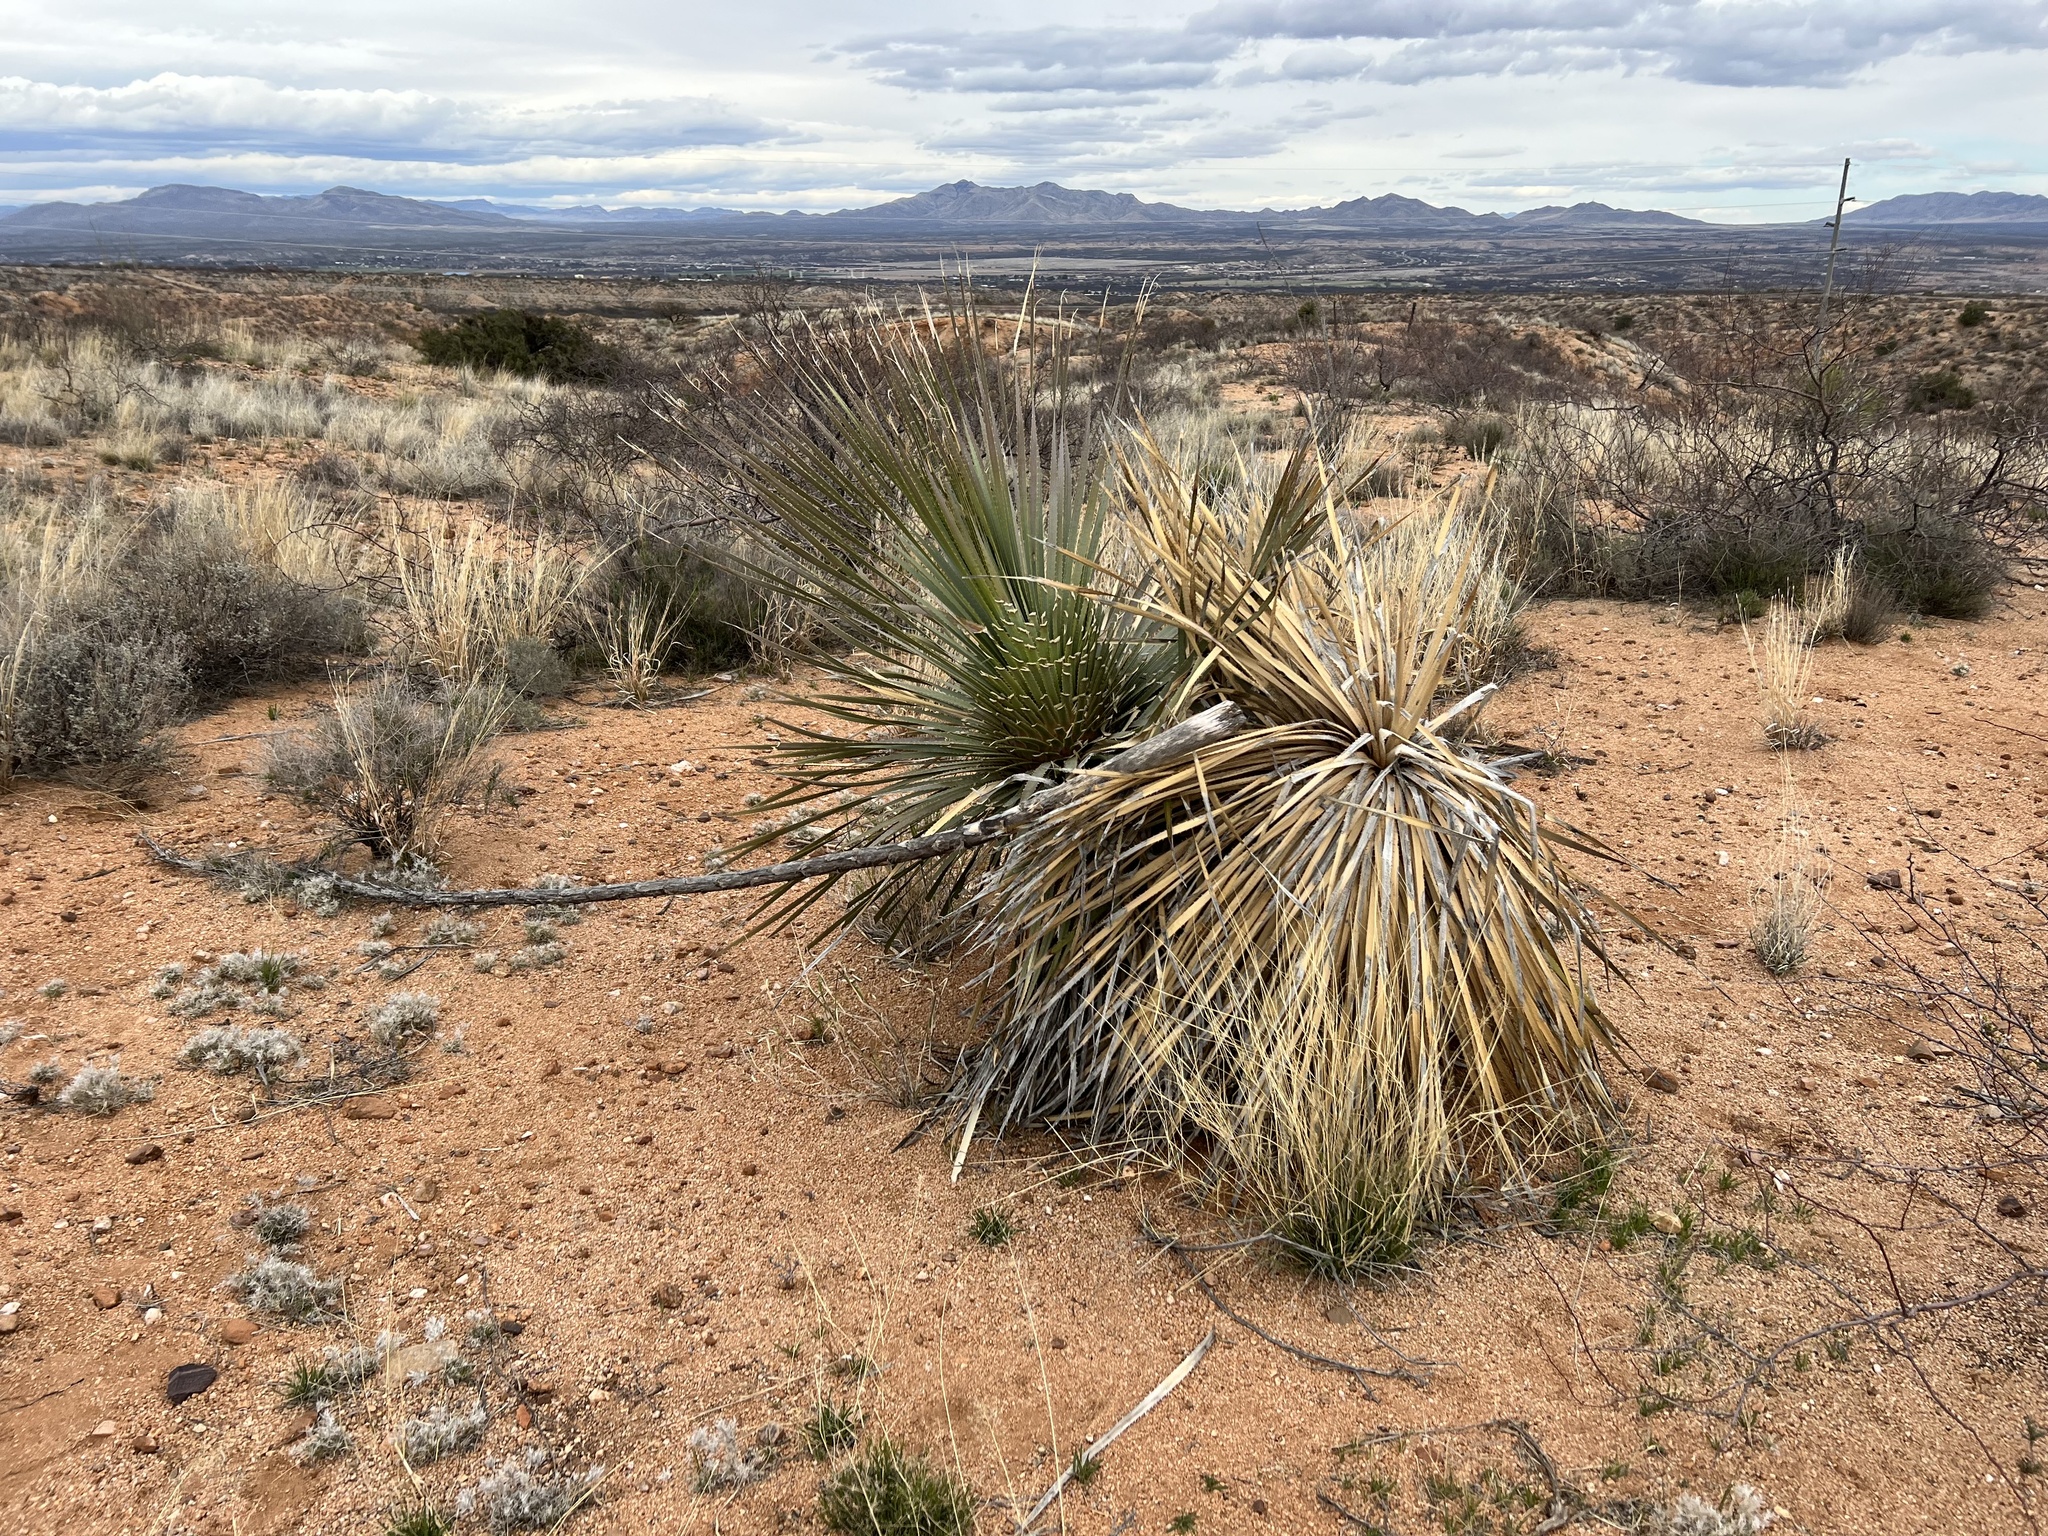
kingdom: Plantae
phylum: Tracheophyta
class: Liliopsida
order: Asparagales
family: Asparagaceae
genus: Yucca
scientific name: Yucca elata
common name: Palmella
